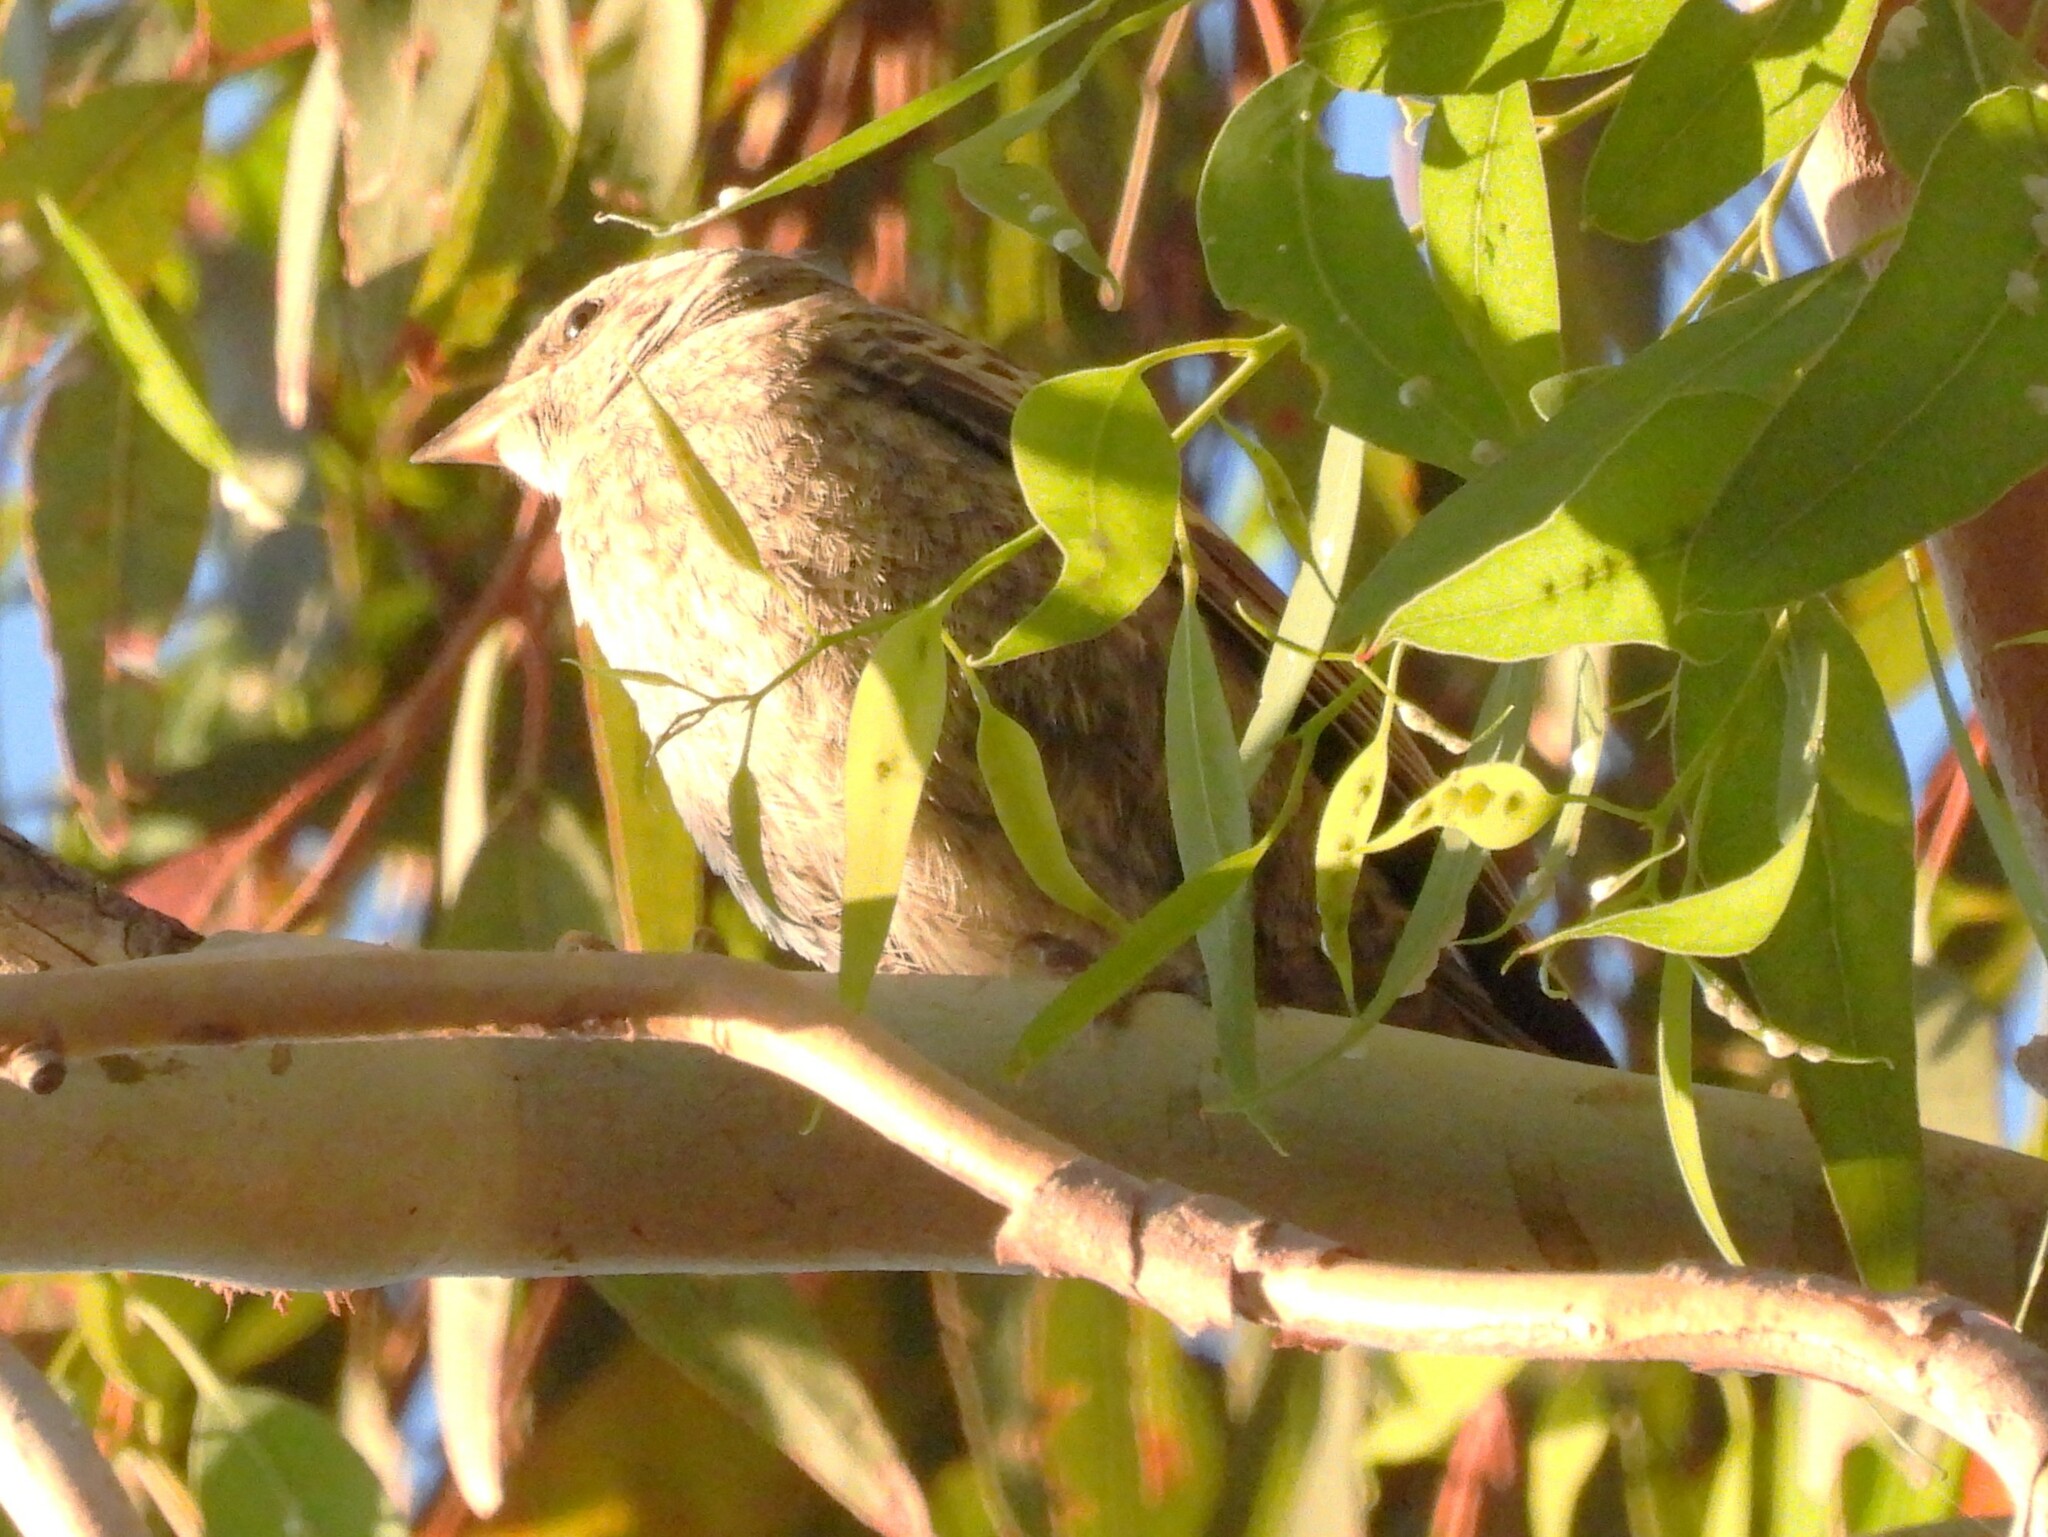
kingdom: Animalia
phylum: Chordata
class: Aves
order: Passeriformes
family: Icteridae
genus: Molothrus
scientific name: Molothrus ater
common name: Brown-headed cowbird
